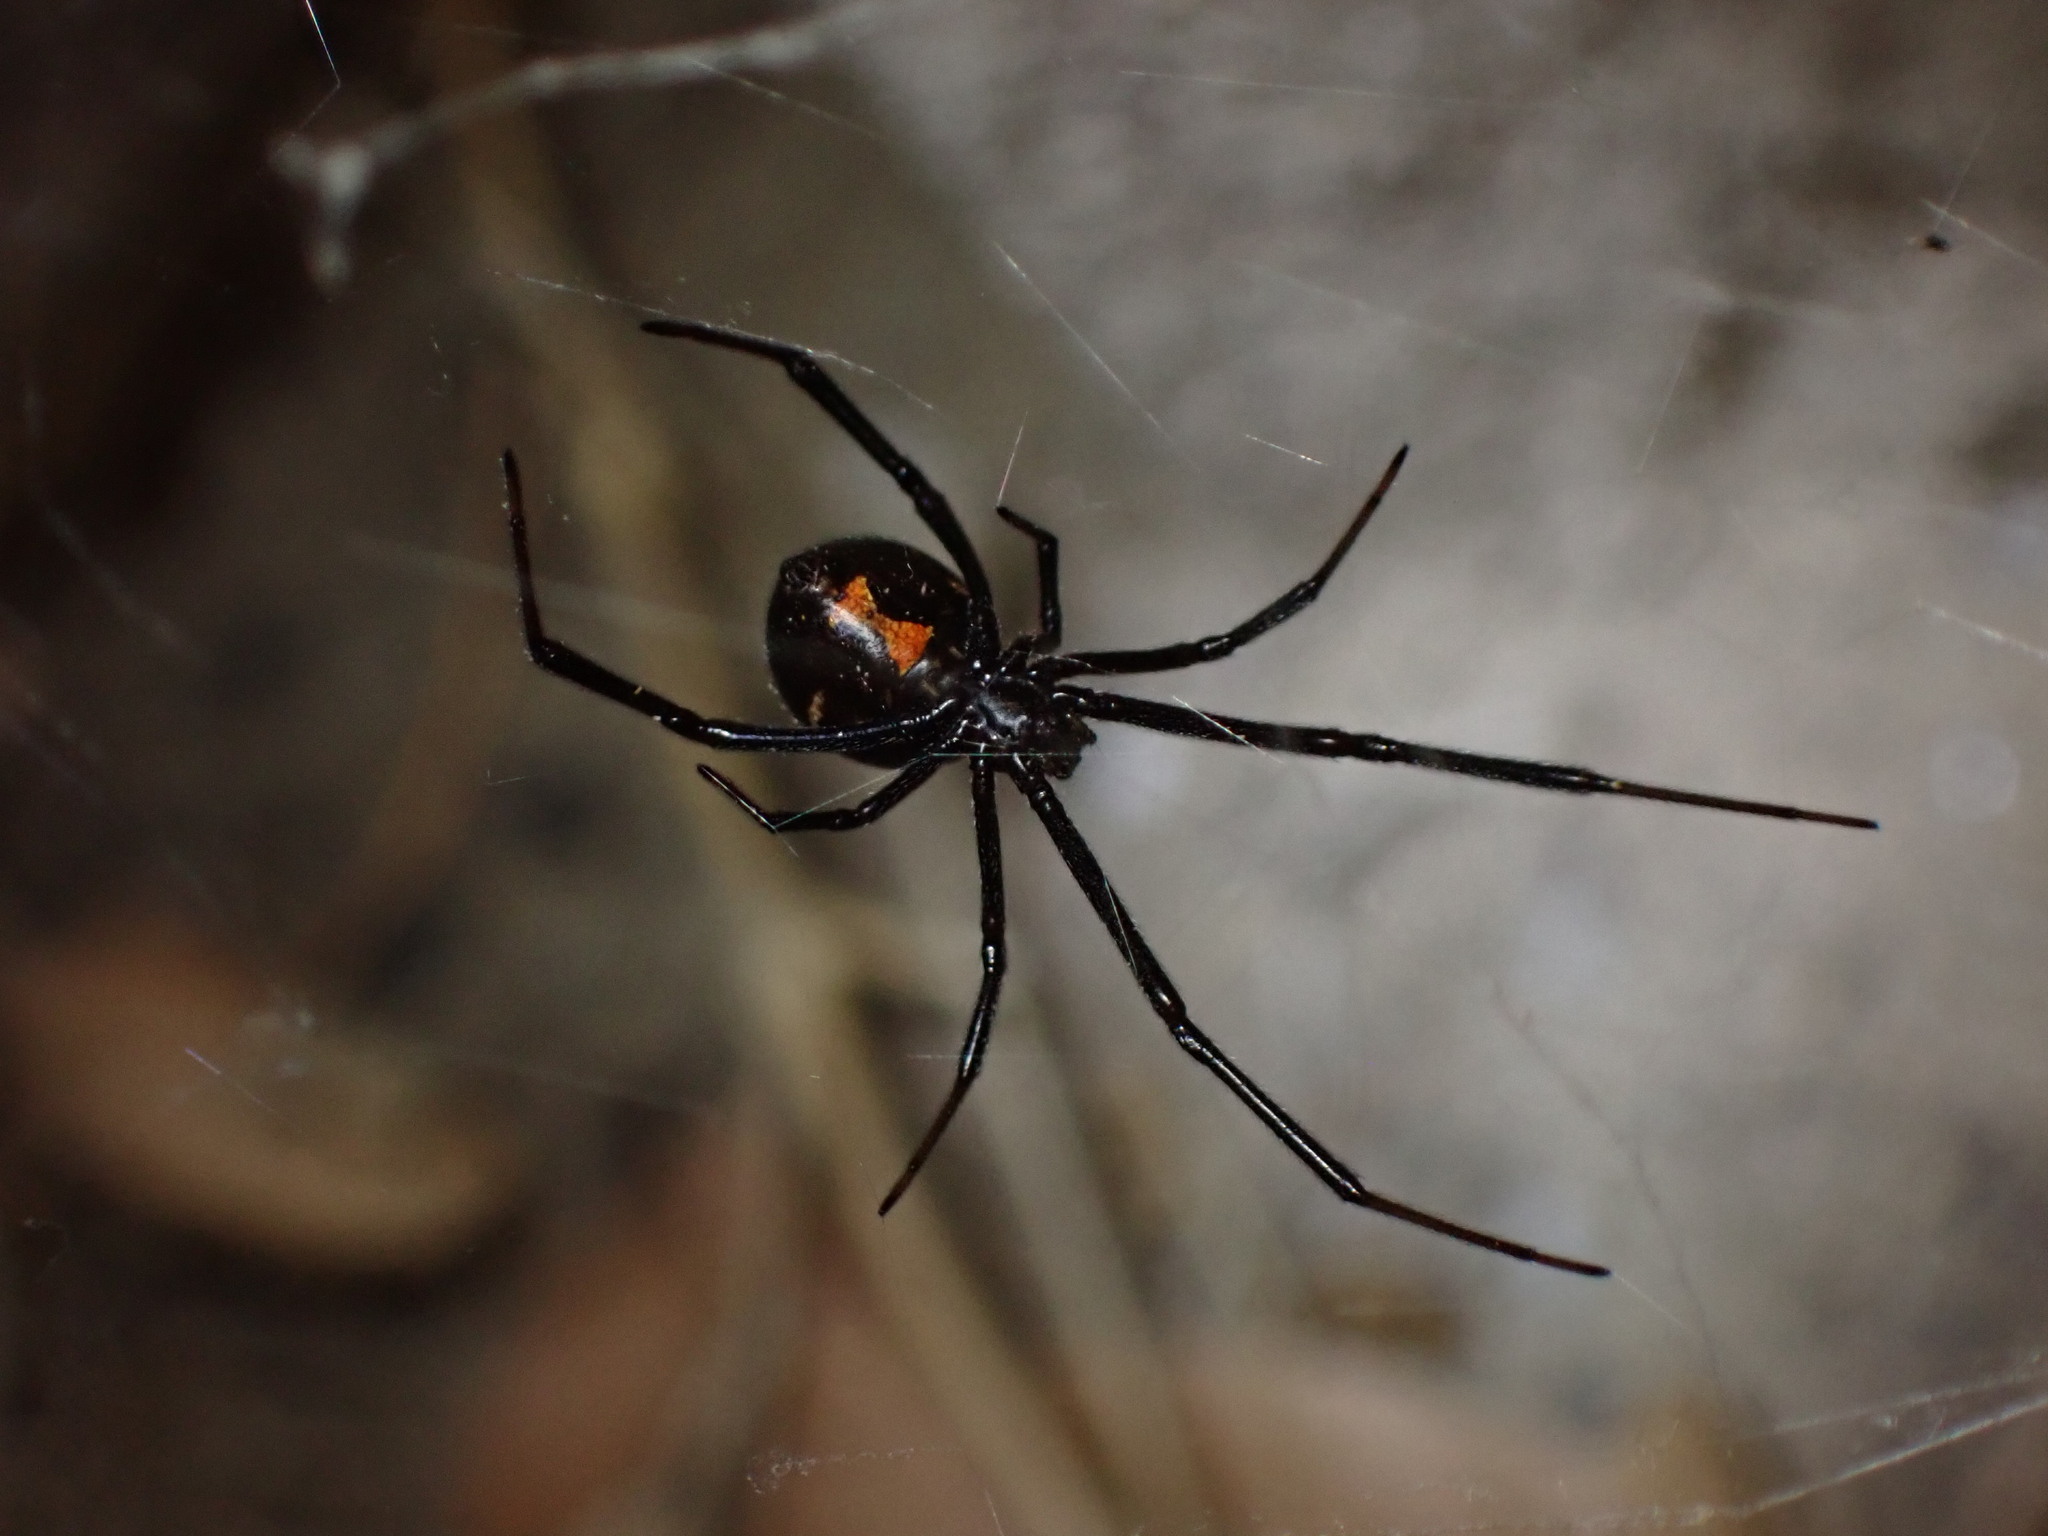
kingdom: Animalia
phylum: Arthropoda
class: Arachnida
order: Araneae
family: Theridiidae
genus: Latrodectus
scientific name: Latrodectus hesperus
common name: Western black widow
